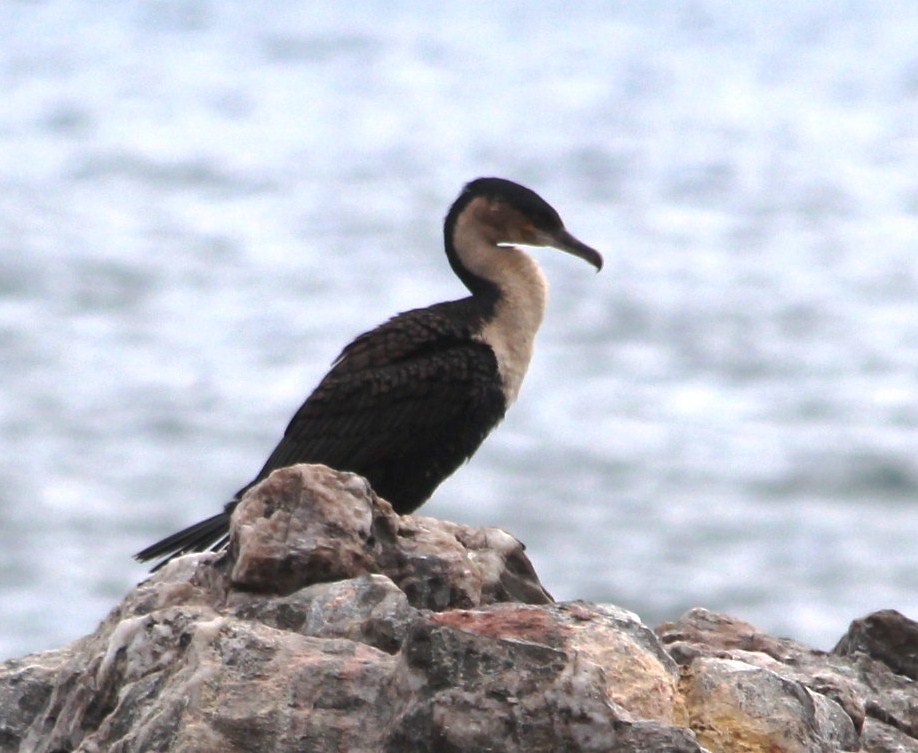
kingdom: Animalia
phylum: Chordata
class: Aves
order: Suliformes
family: Phalacrocoracidae
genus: Phalacrocorax
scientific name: Phalacrocorax carbo
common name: Great cormorant
